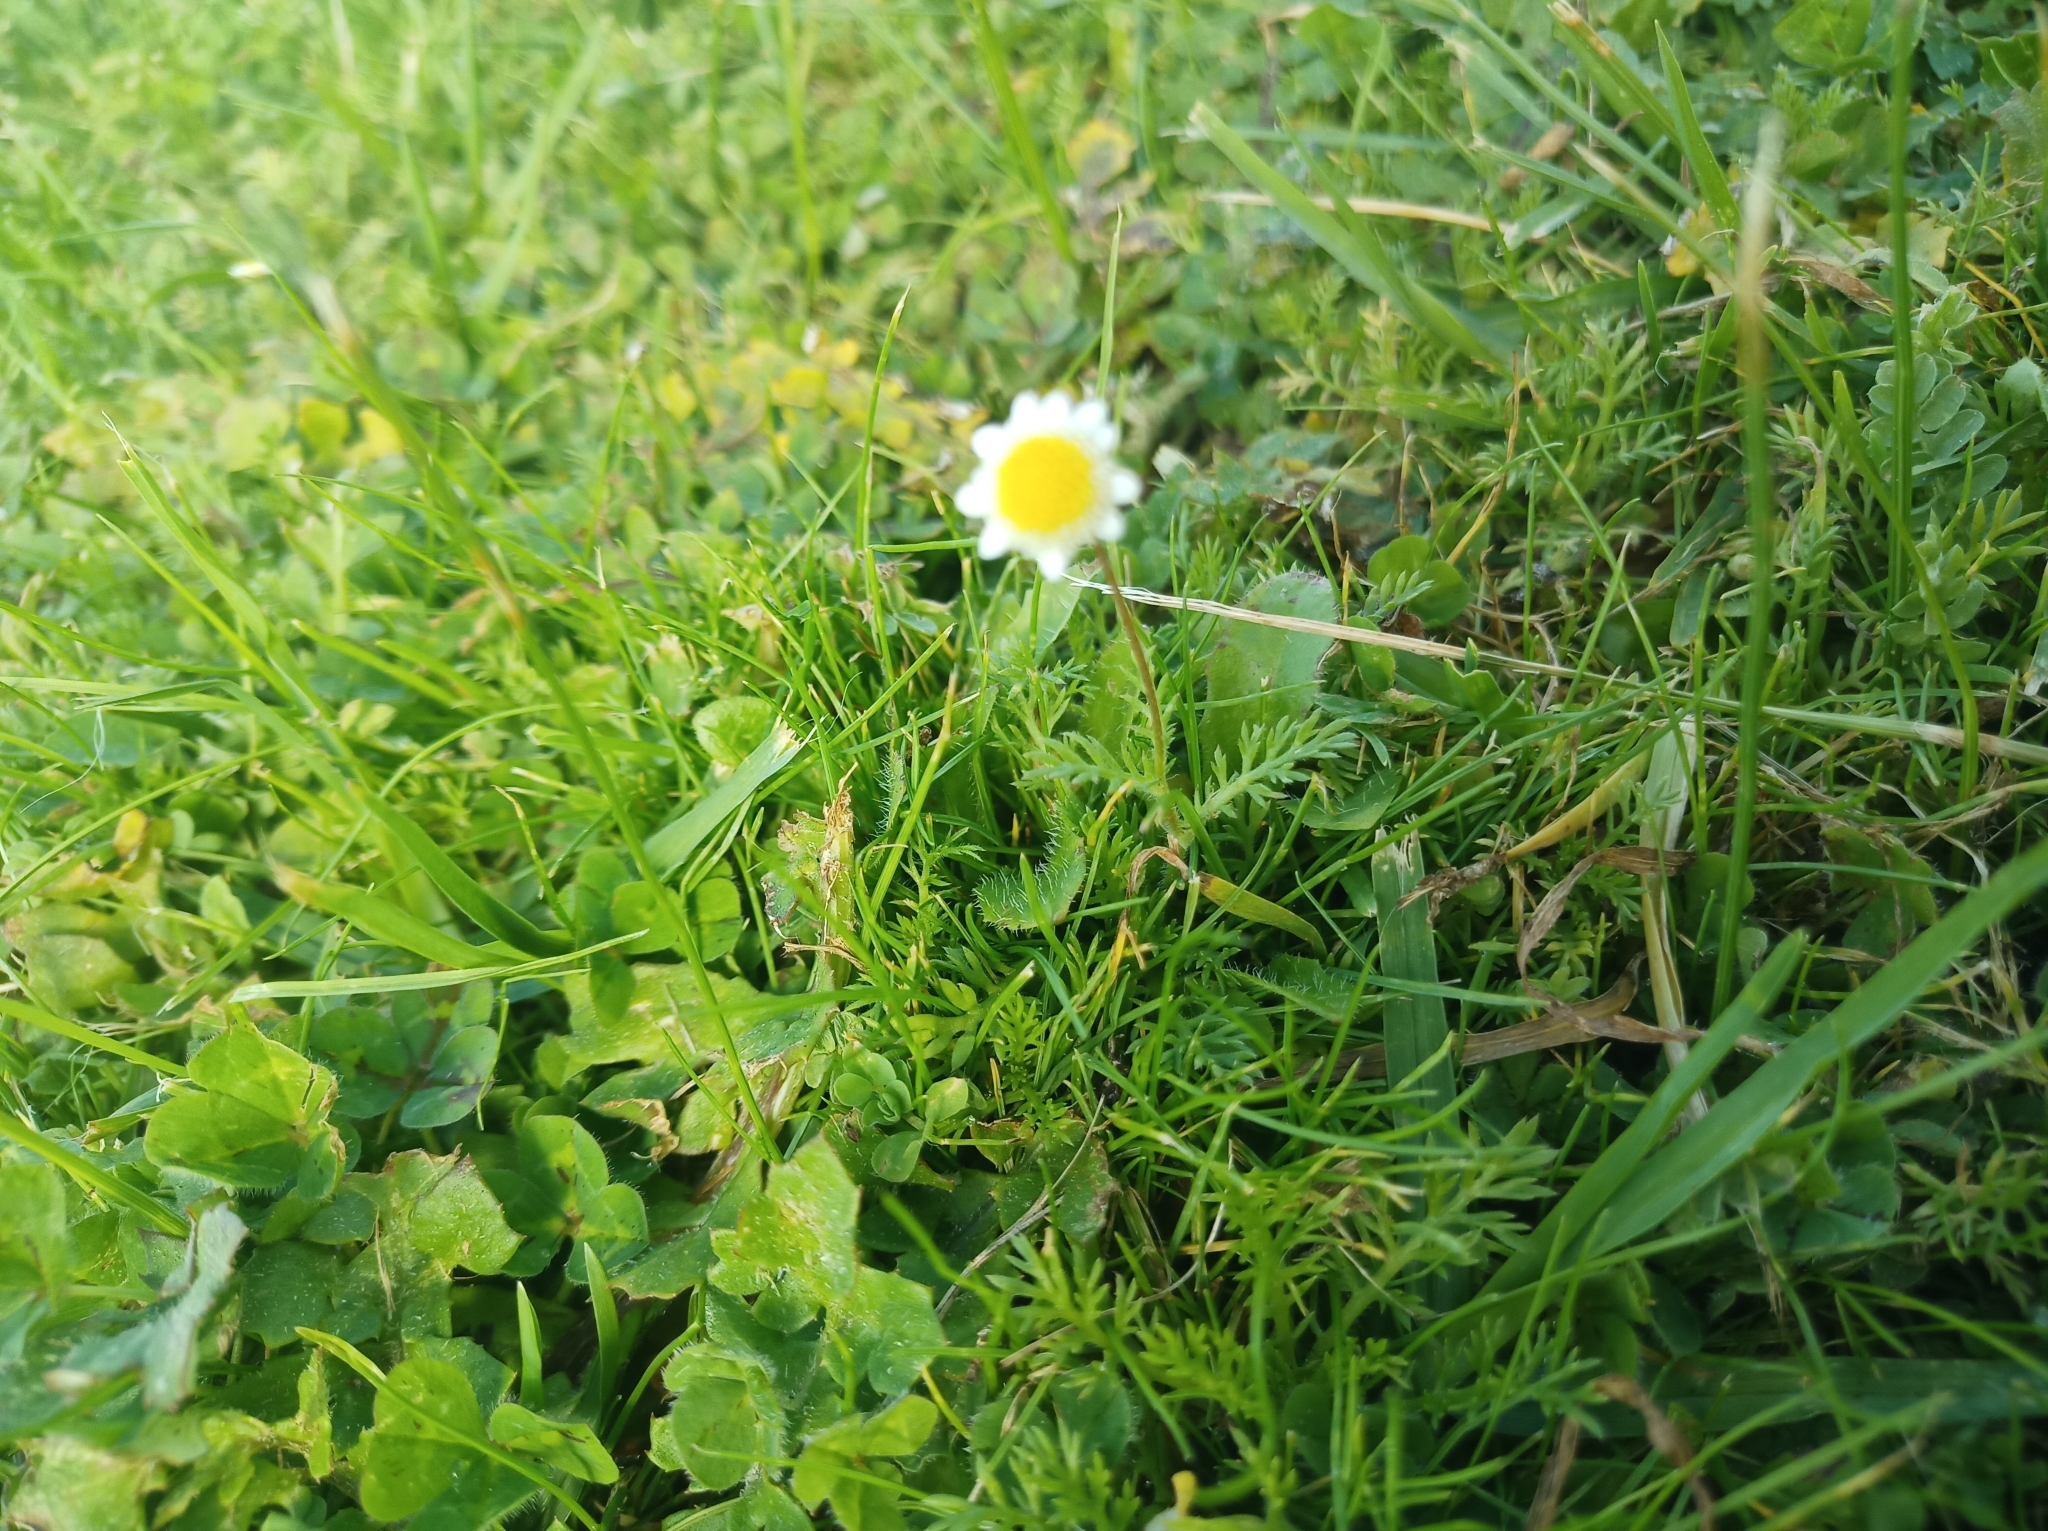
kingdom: Plantae
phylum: Tracheophyta
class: Magnoliopsida
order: Asterales
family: Asteraceae
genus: Cotula
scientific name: Cotula turbinata
